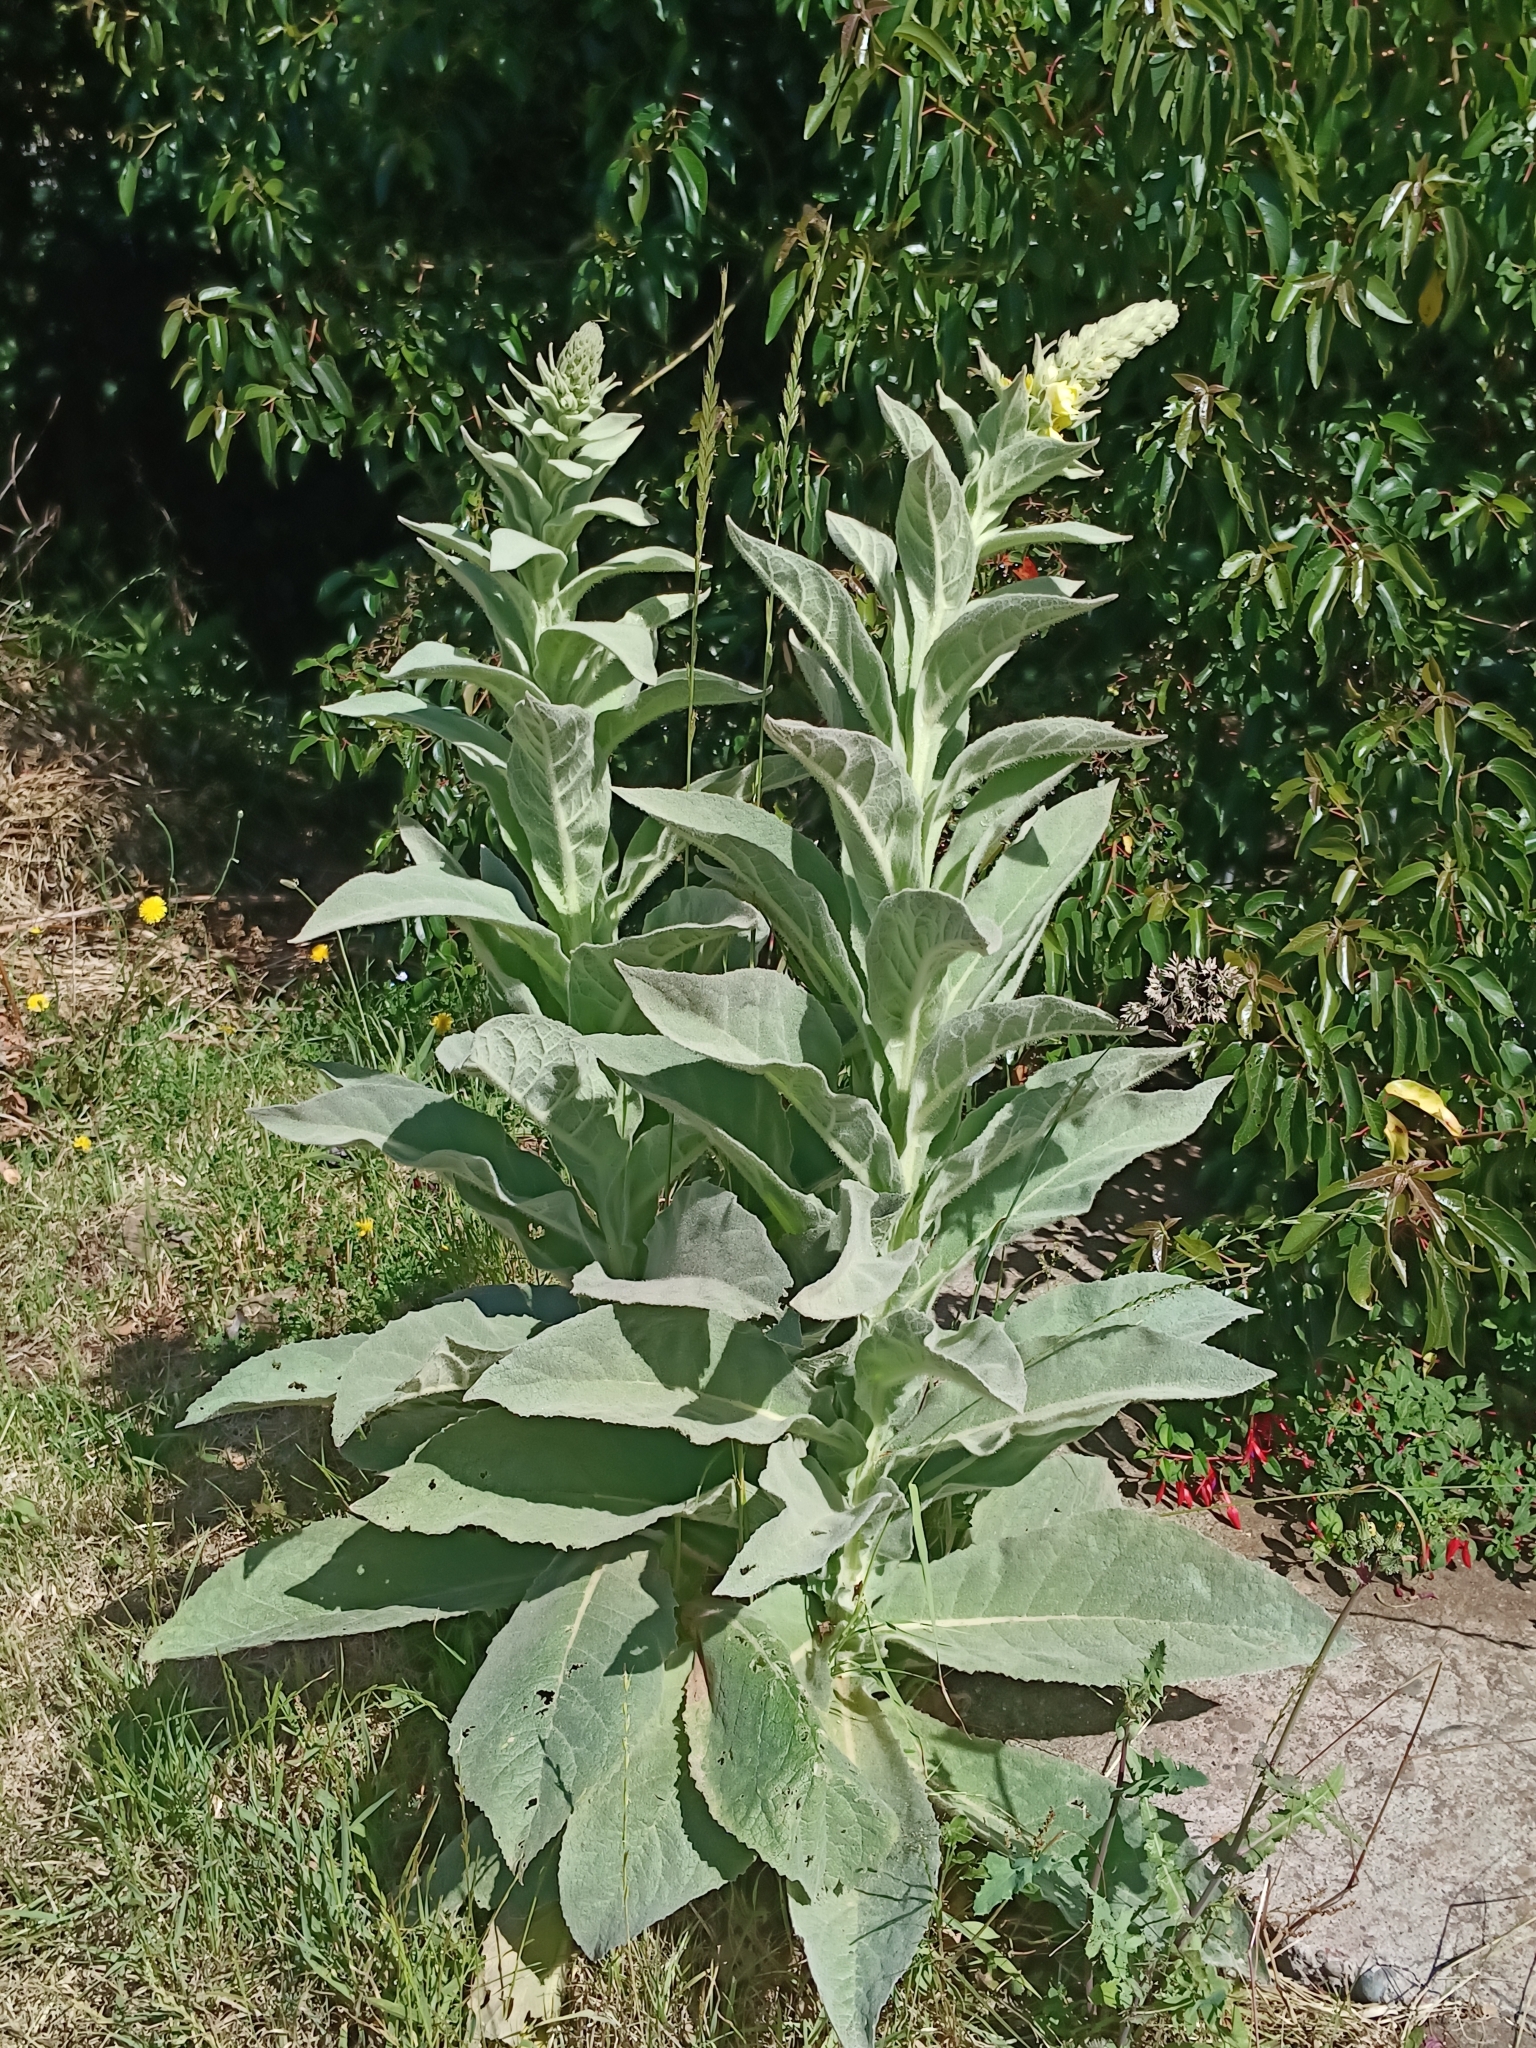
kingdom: Plantae
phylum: Tracheophyta
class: Magnoliopsida
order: Lamiales
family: Scrophulariaceae
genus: Verbascum
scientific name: Verbascum thapsus
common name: Common mullein
